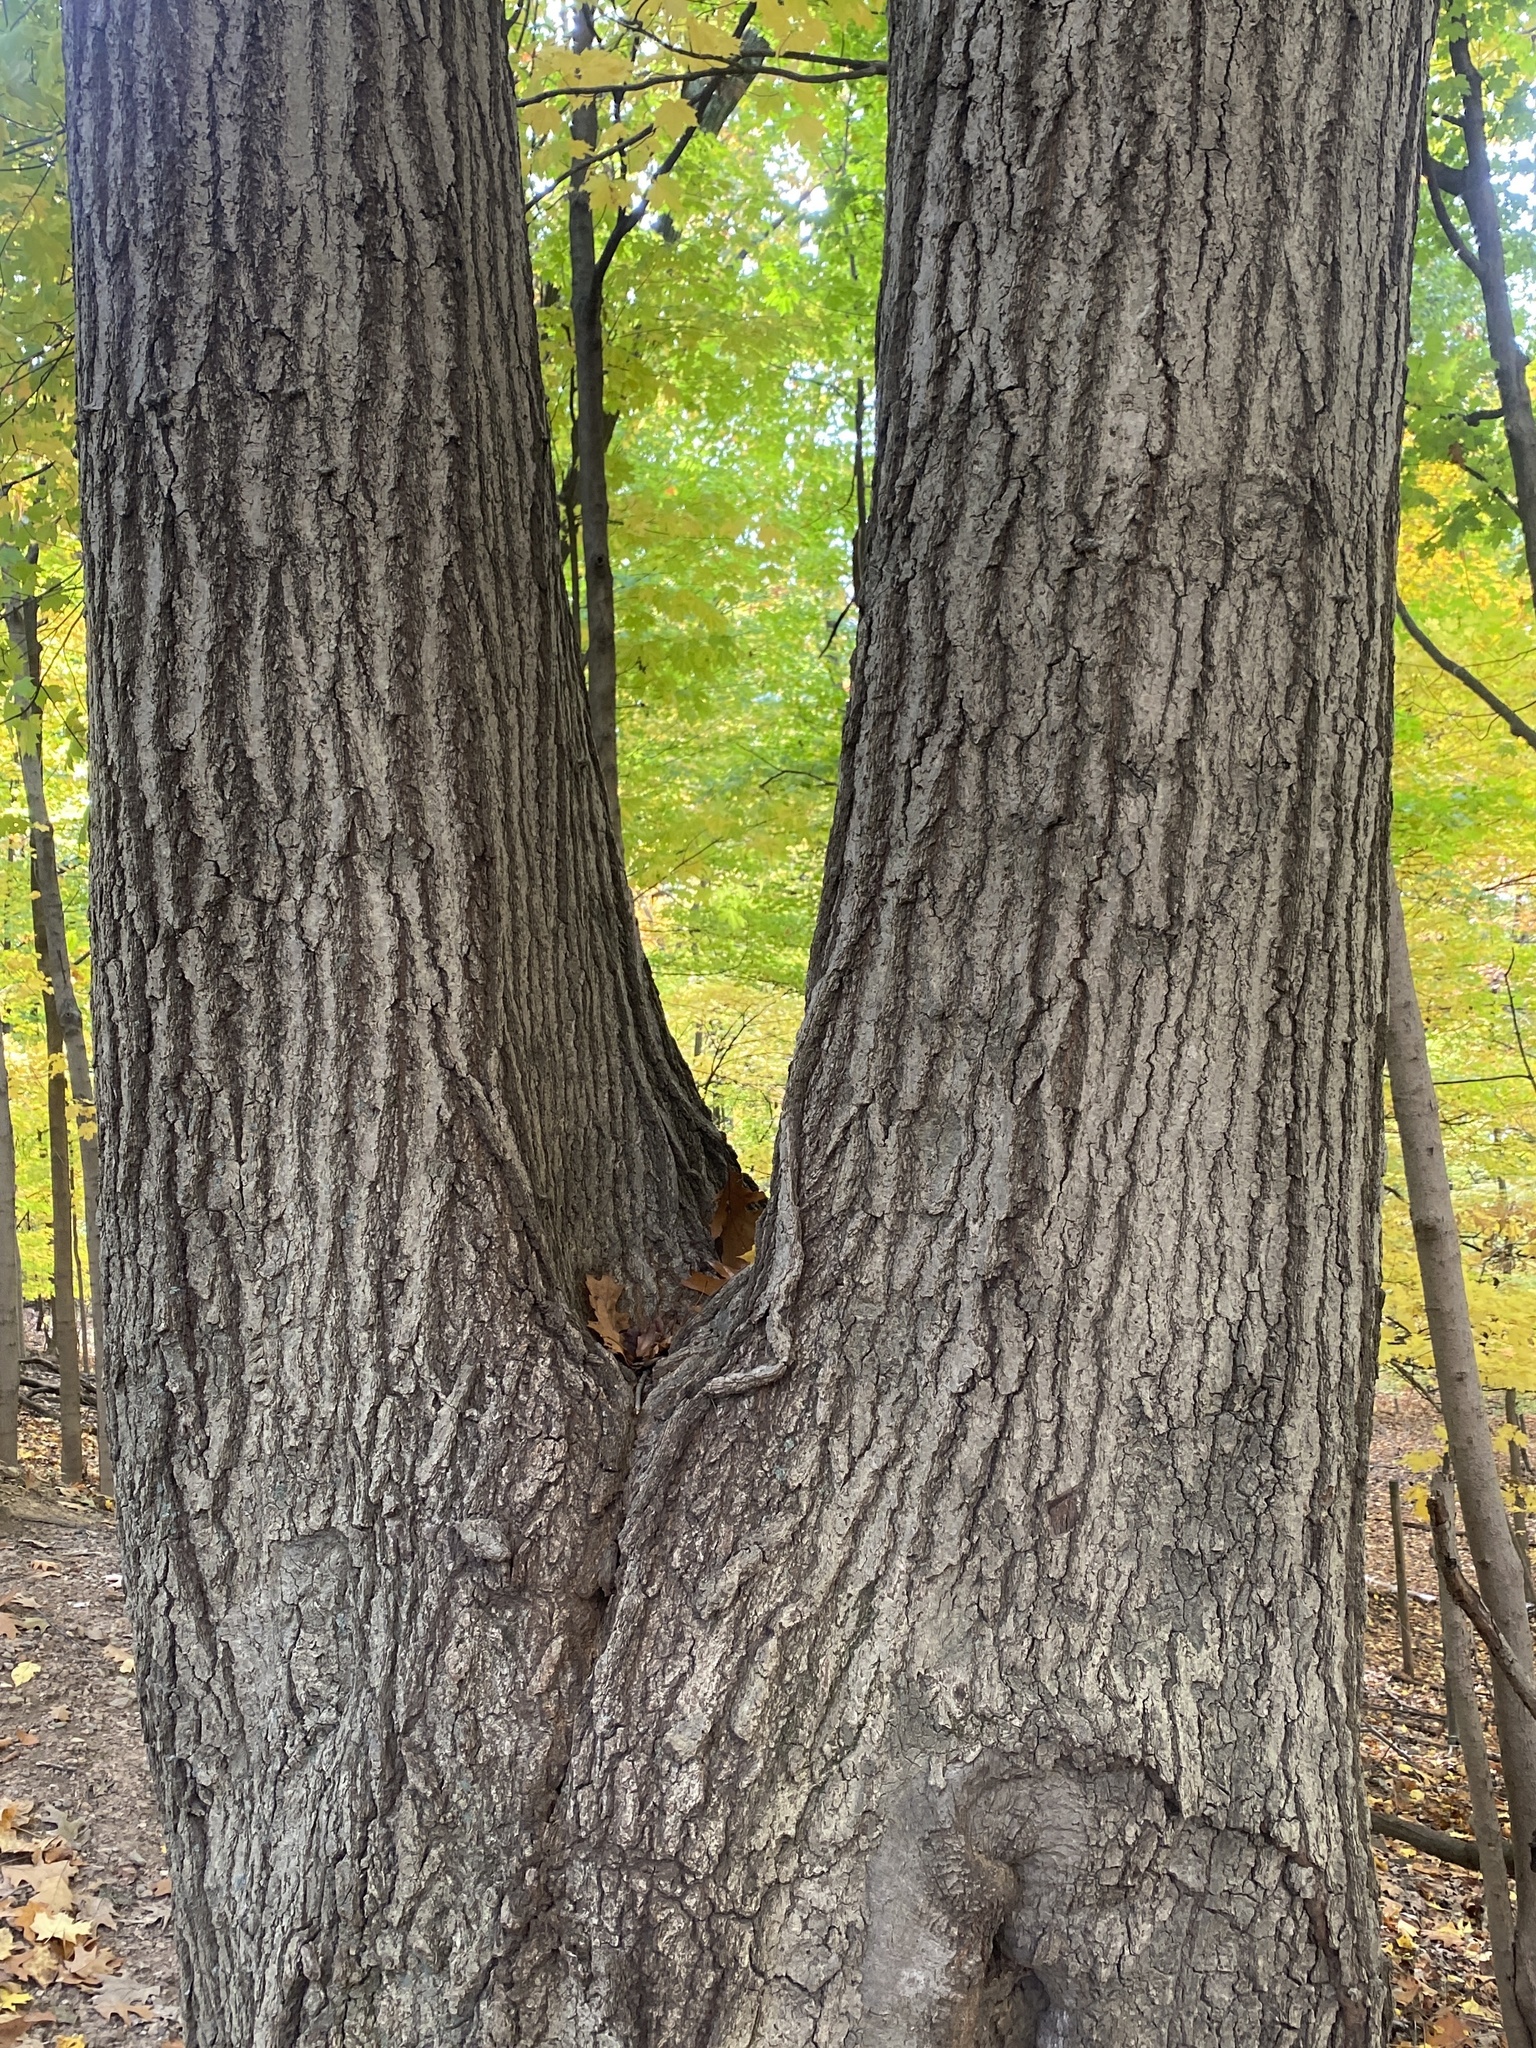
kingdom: Plantae
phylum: Tracheophyta
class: Magnoliopsida
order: Fagales
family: Fagaceae
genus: Quercus
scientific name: Quercus rubra
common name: Red oak
